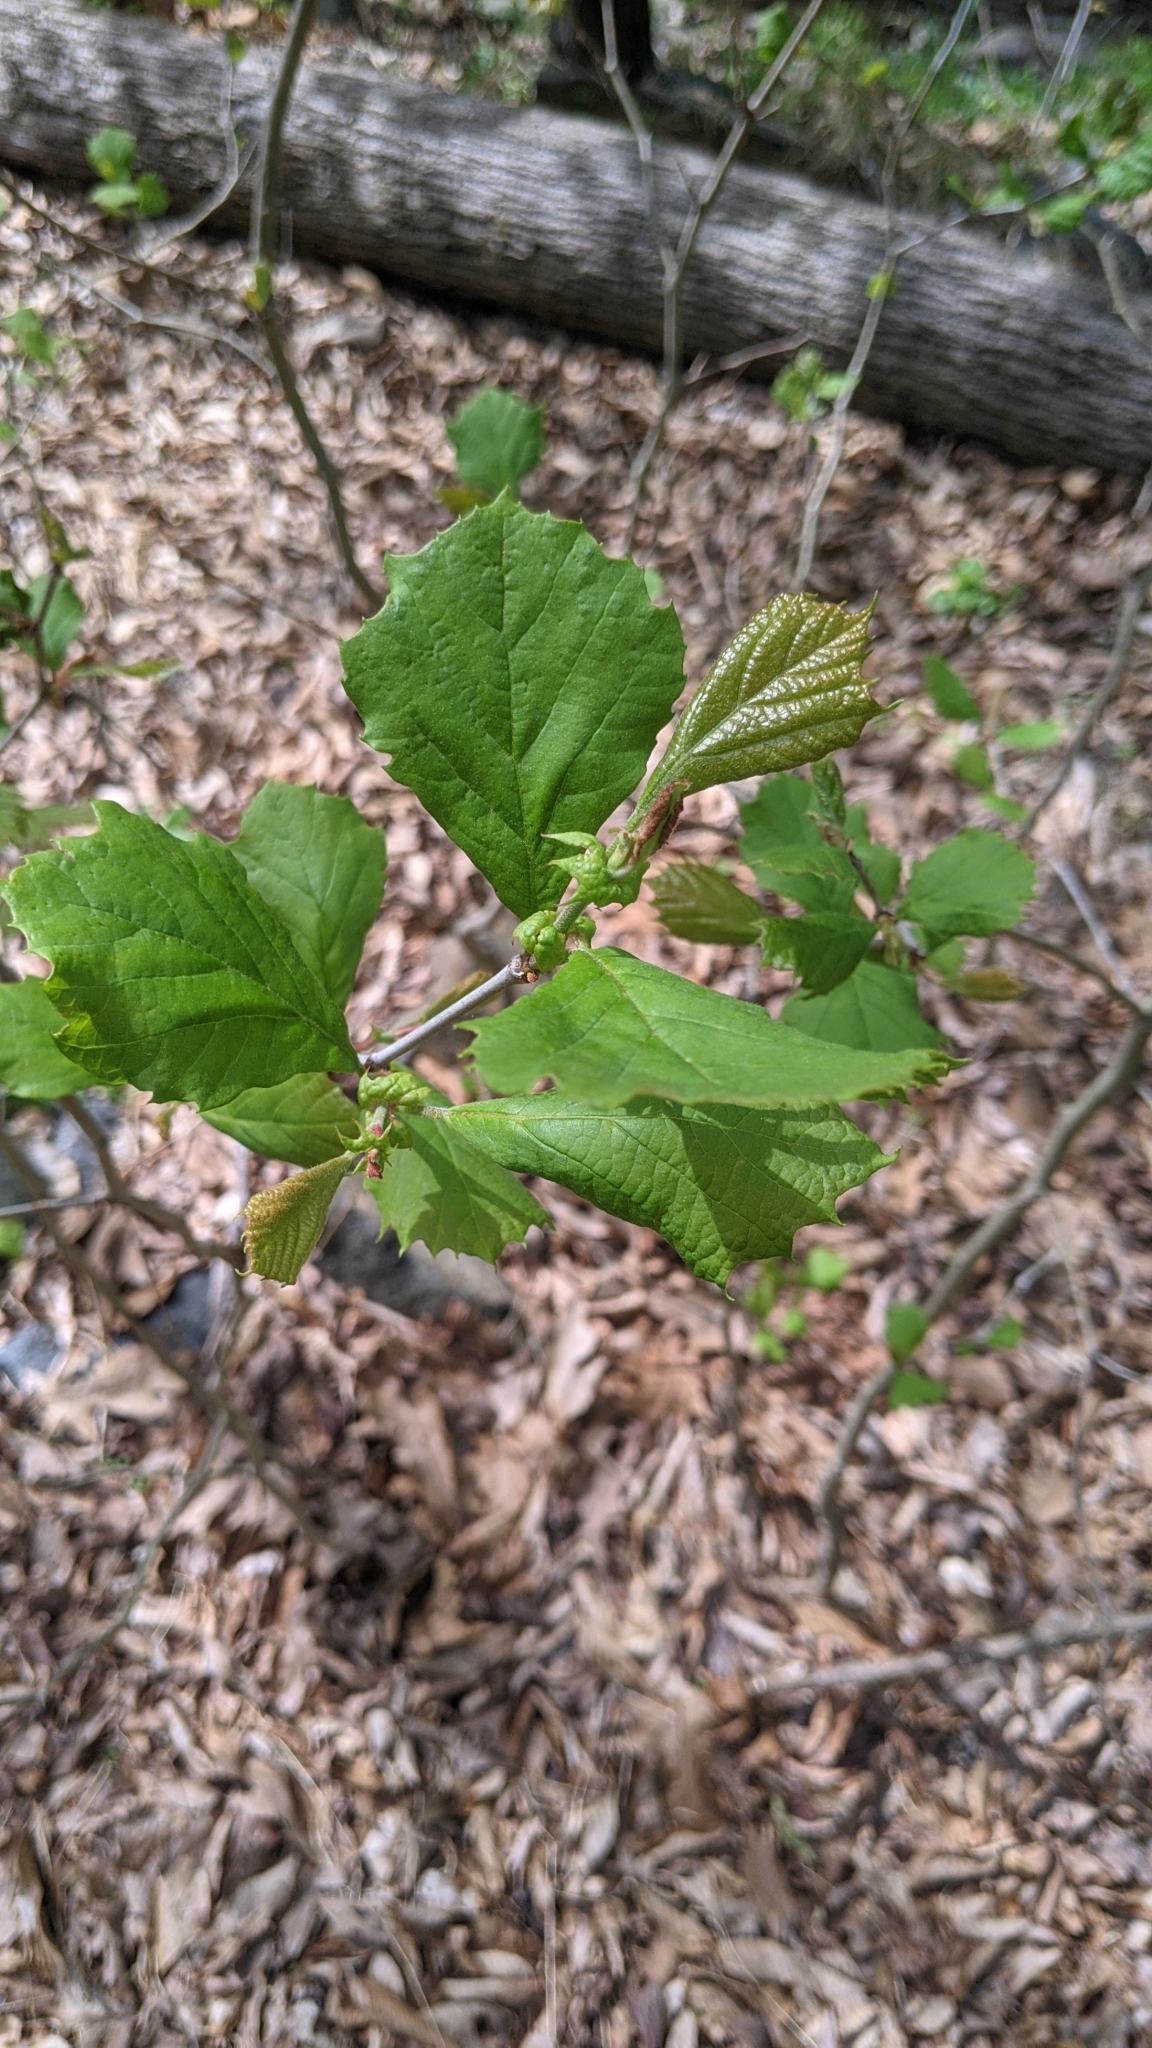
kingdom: Plantae
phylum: Tracheophyta
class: Magnoliopsida
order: Fagales
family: Betulaceae
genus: Corylus
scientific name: Corylus americana
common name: American hazel
